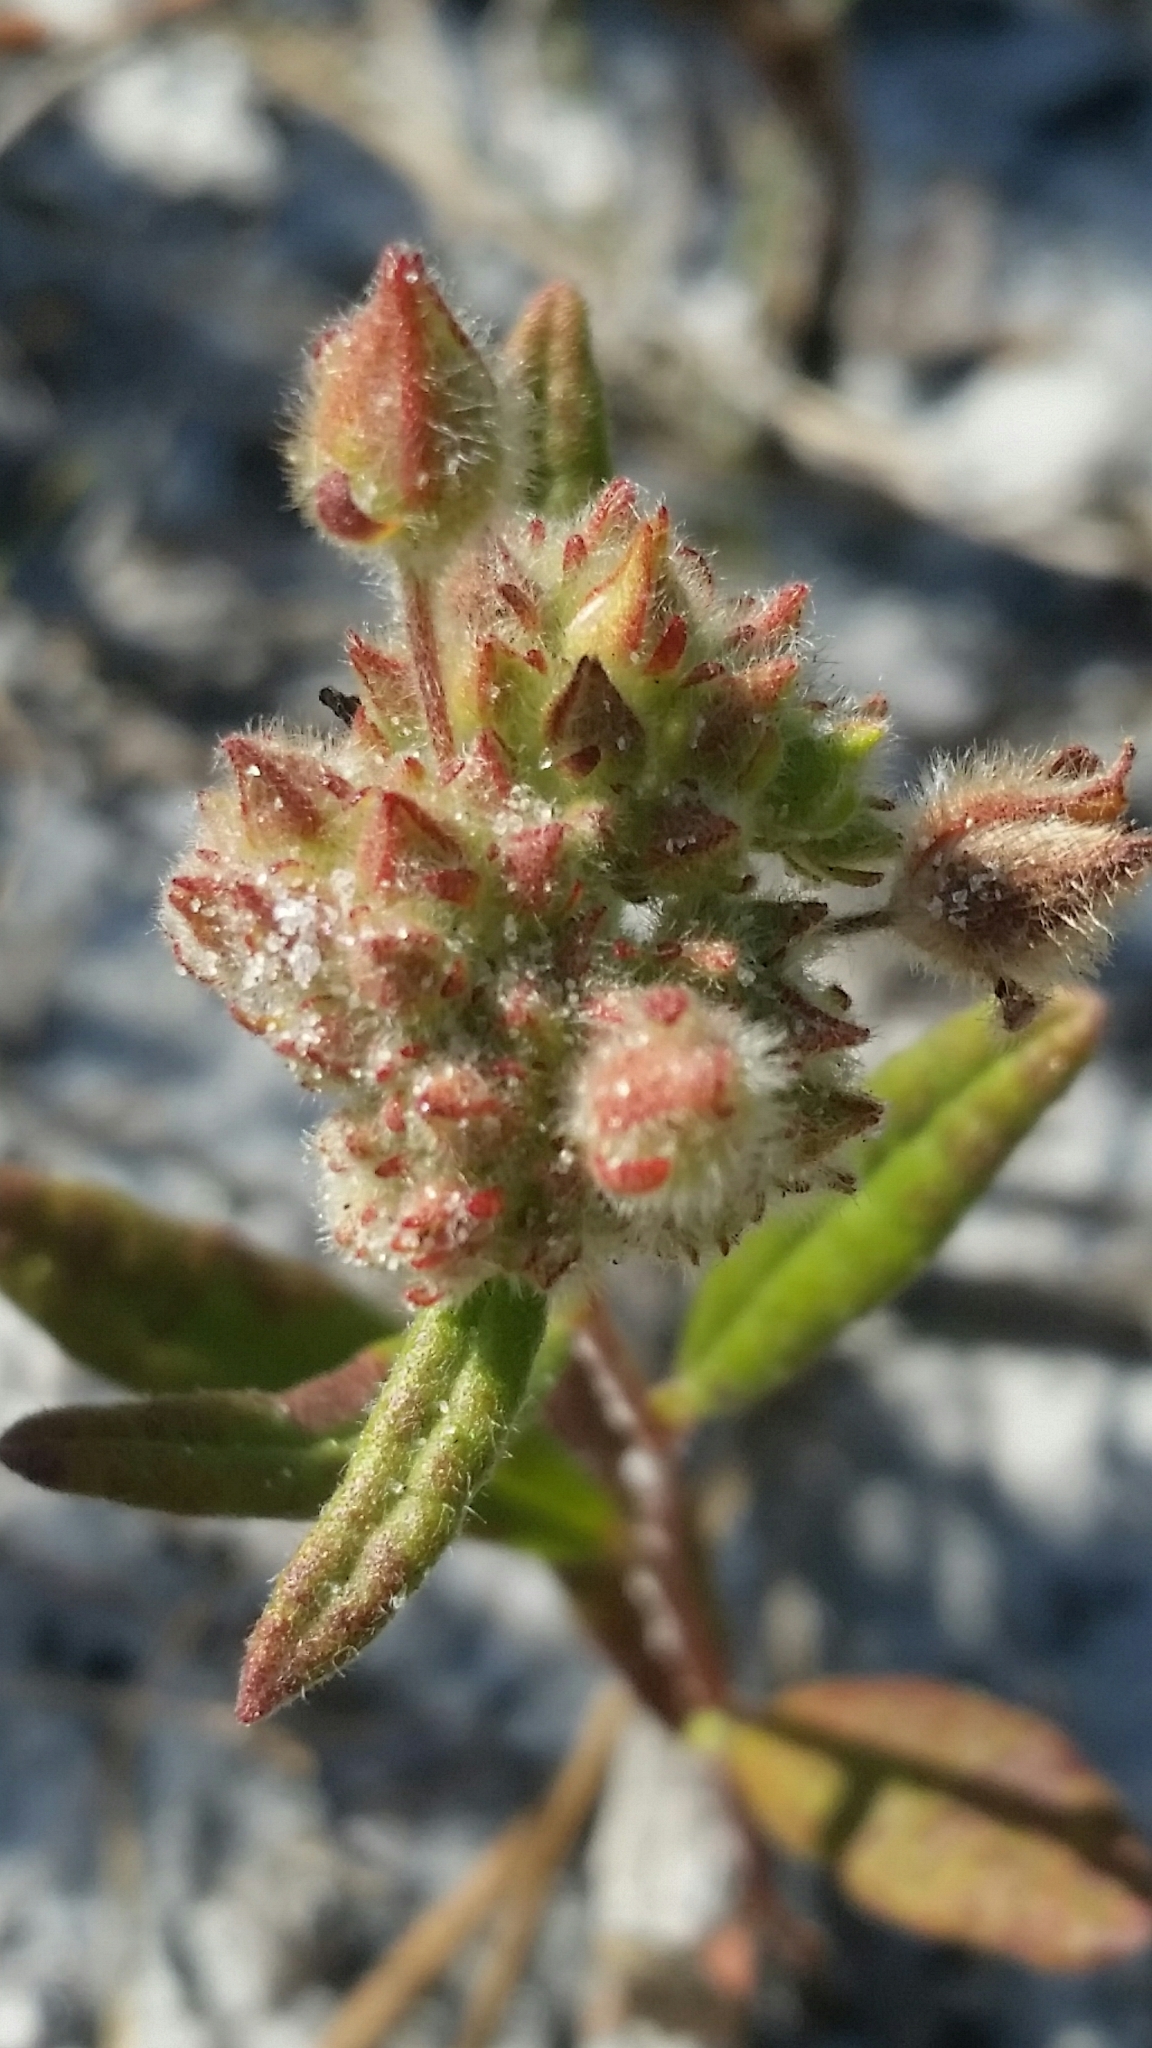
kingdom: Plantae
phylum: Tracheophyta
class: Magnoliopsida
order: Malvales
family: Cistaceae
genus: Crocanthemum
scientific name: Crocanthemum corymbosum
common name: Pinebarren sun-rose
